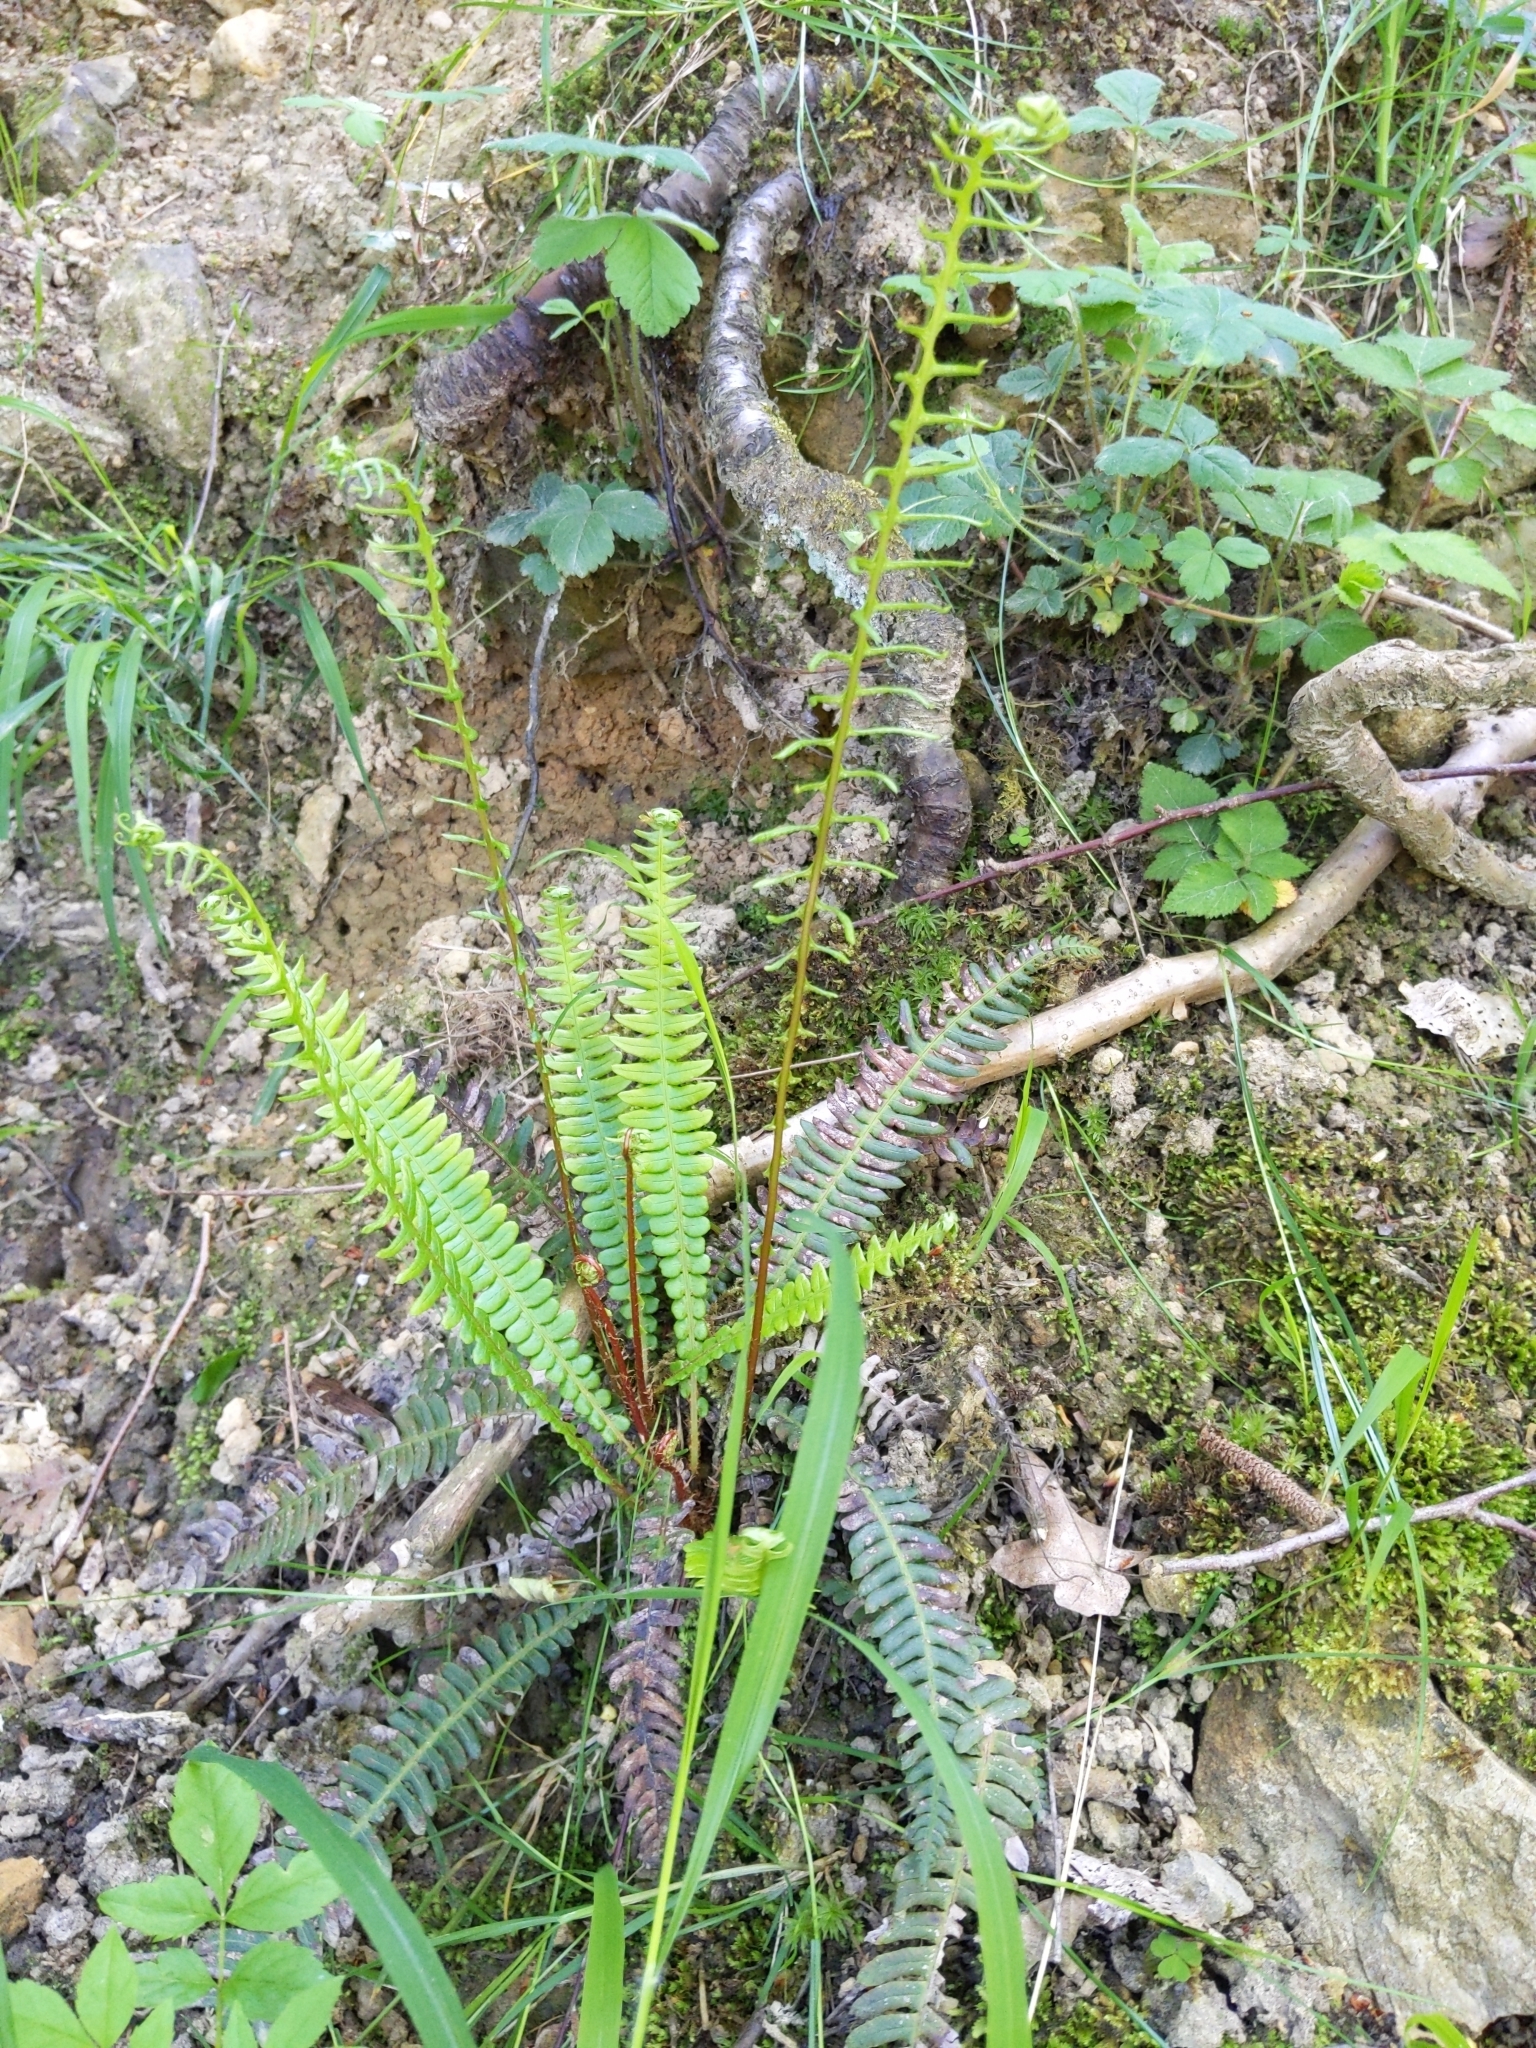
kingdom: Plantae
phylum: Tracheophyta
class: Polypodiopsida
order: Polypodiales
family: Blechnaceae
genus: Struthiopteris
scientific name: Struthiopteris spicant
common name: Deer fern
